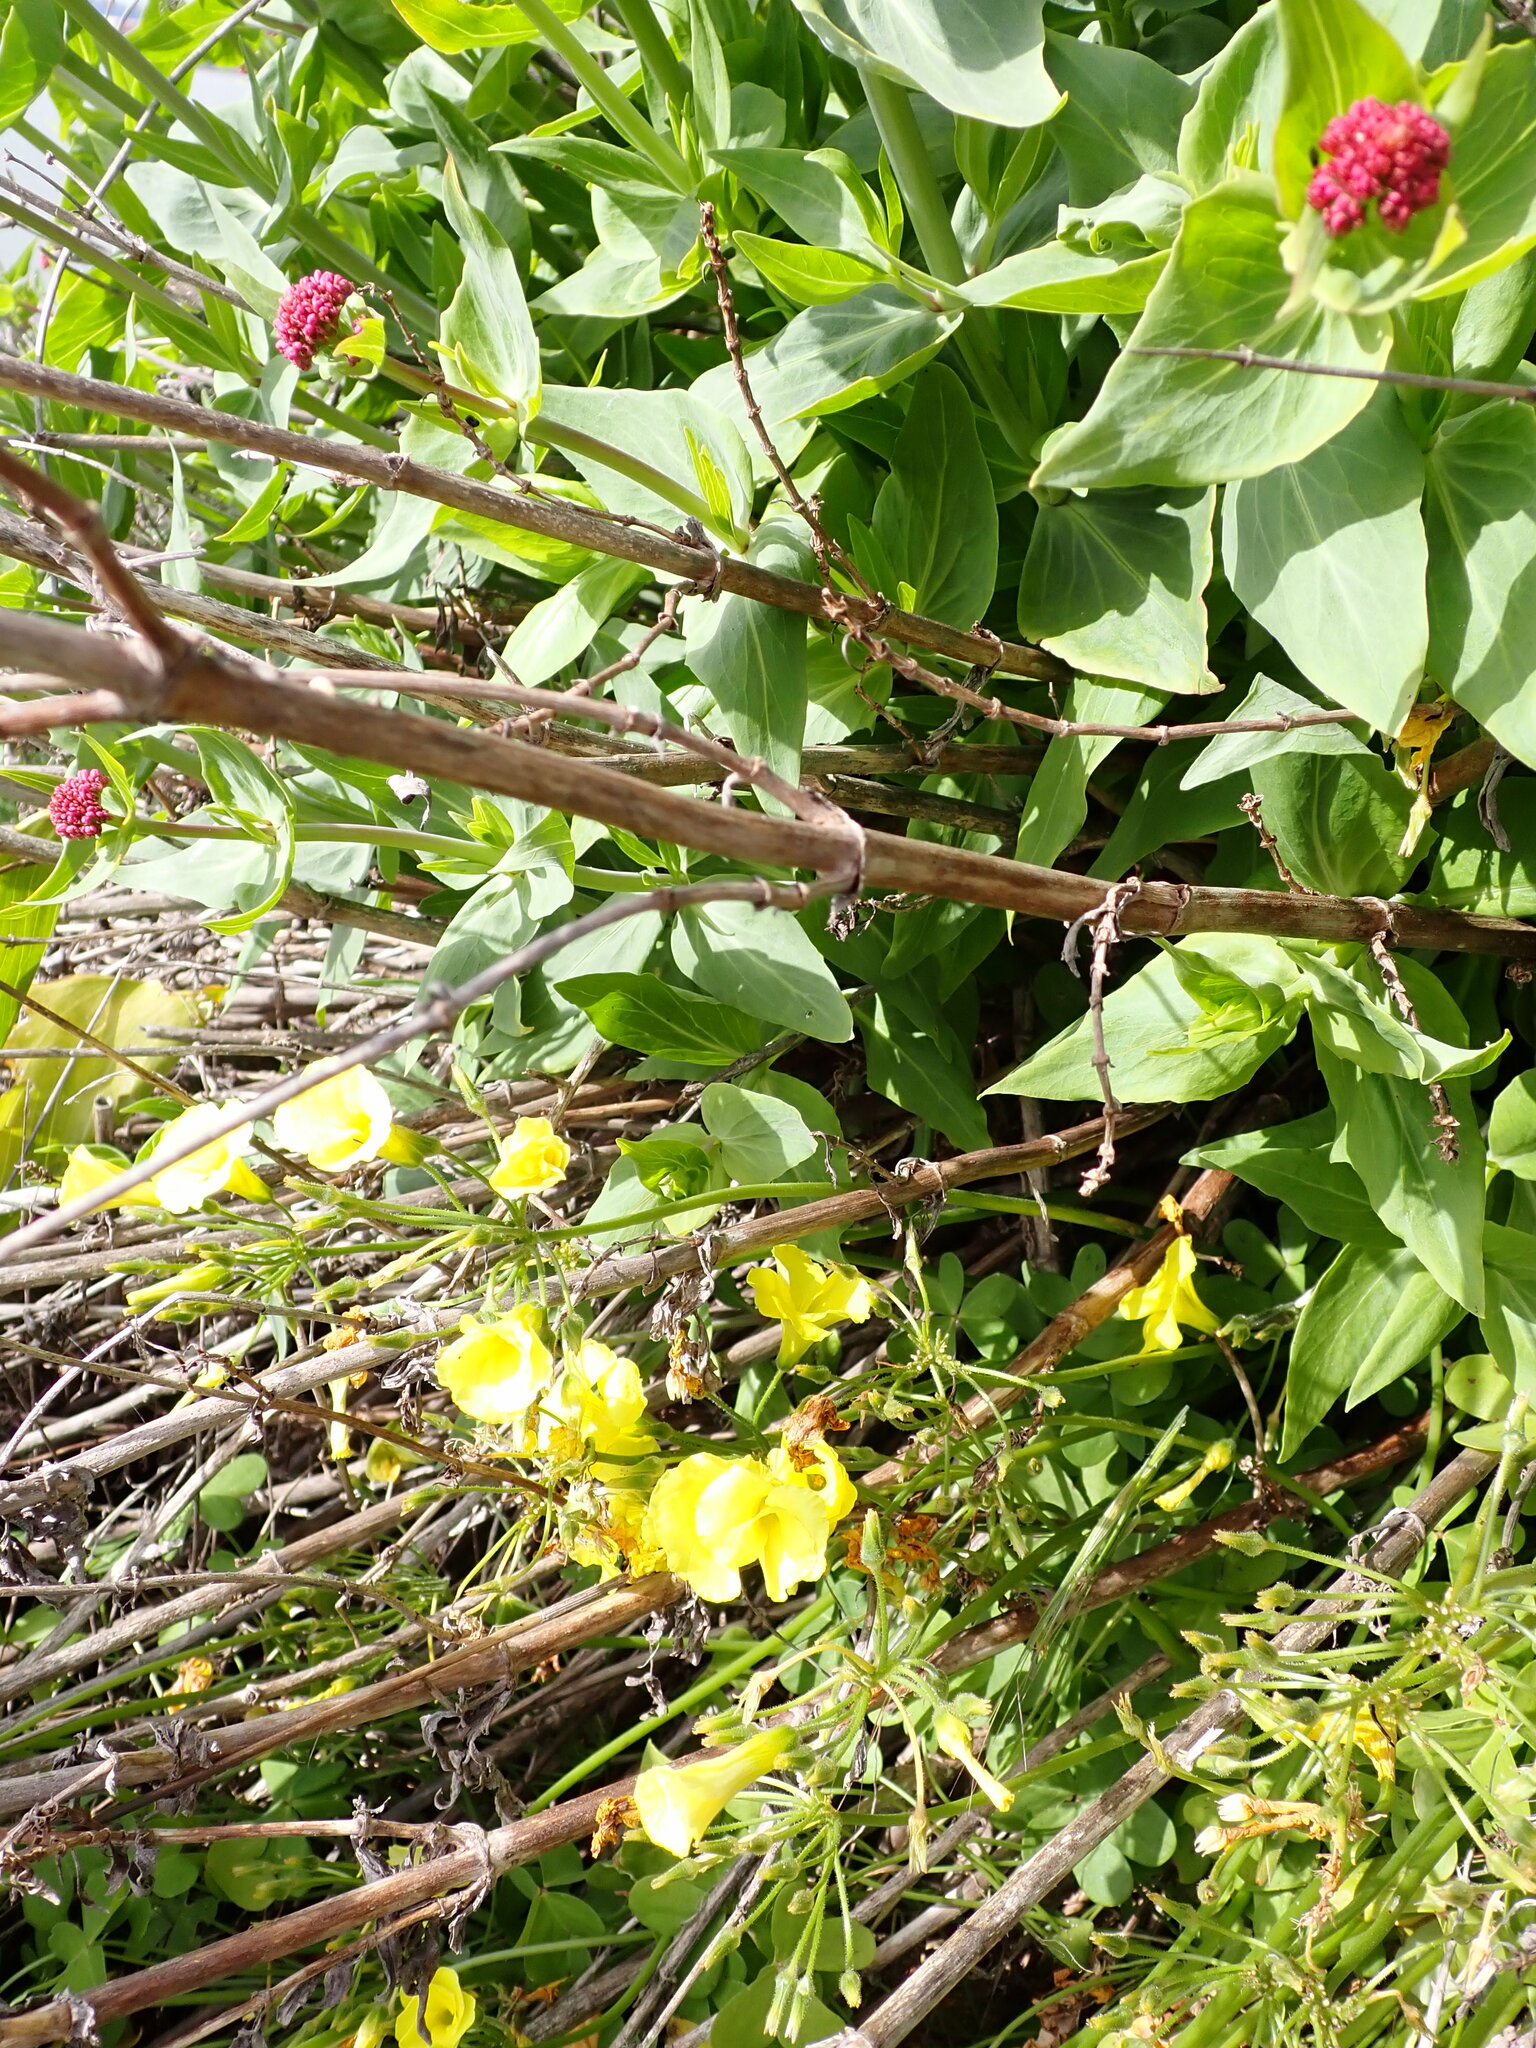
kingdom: Plantae
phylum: Tracheophyta
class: Magnoliopsida
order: Oxalidales
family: Oxalidaceae
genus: Oxalis
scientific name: Oxalis pes-caprae
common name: Bermuda-buttercup
